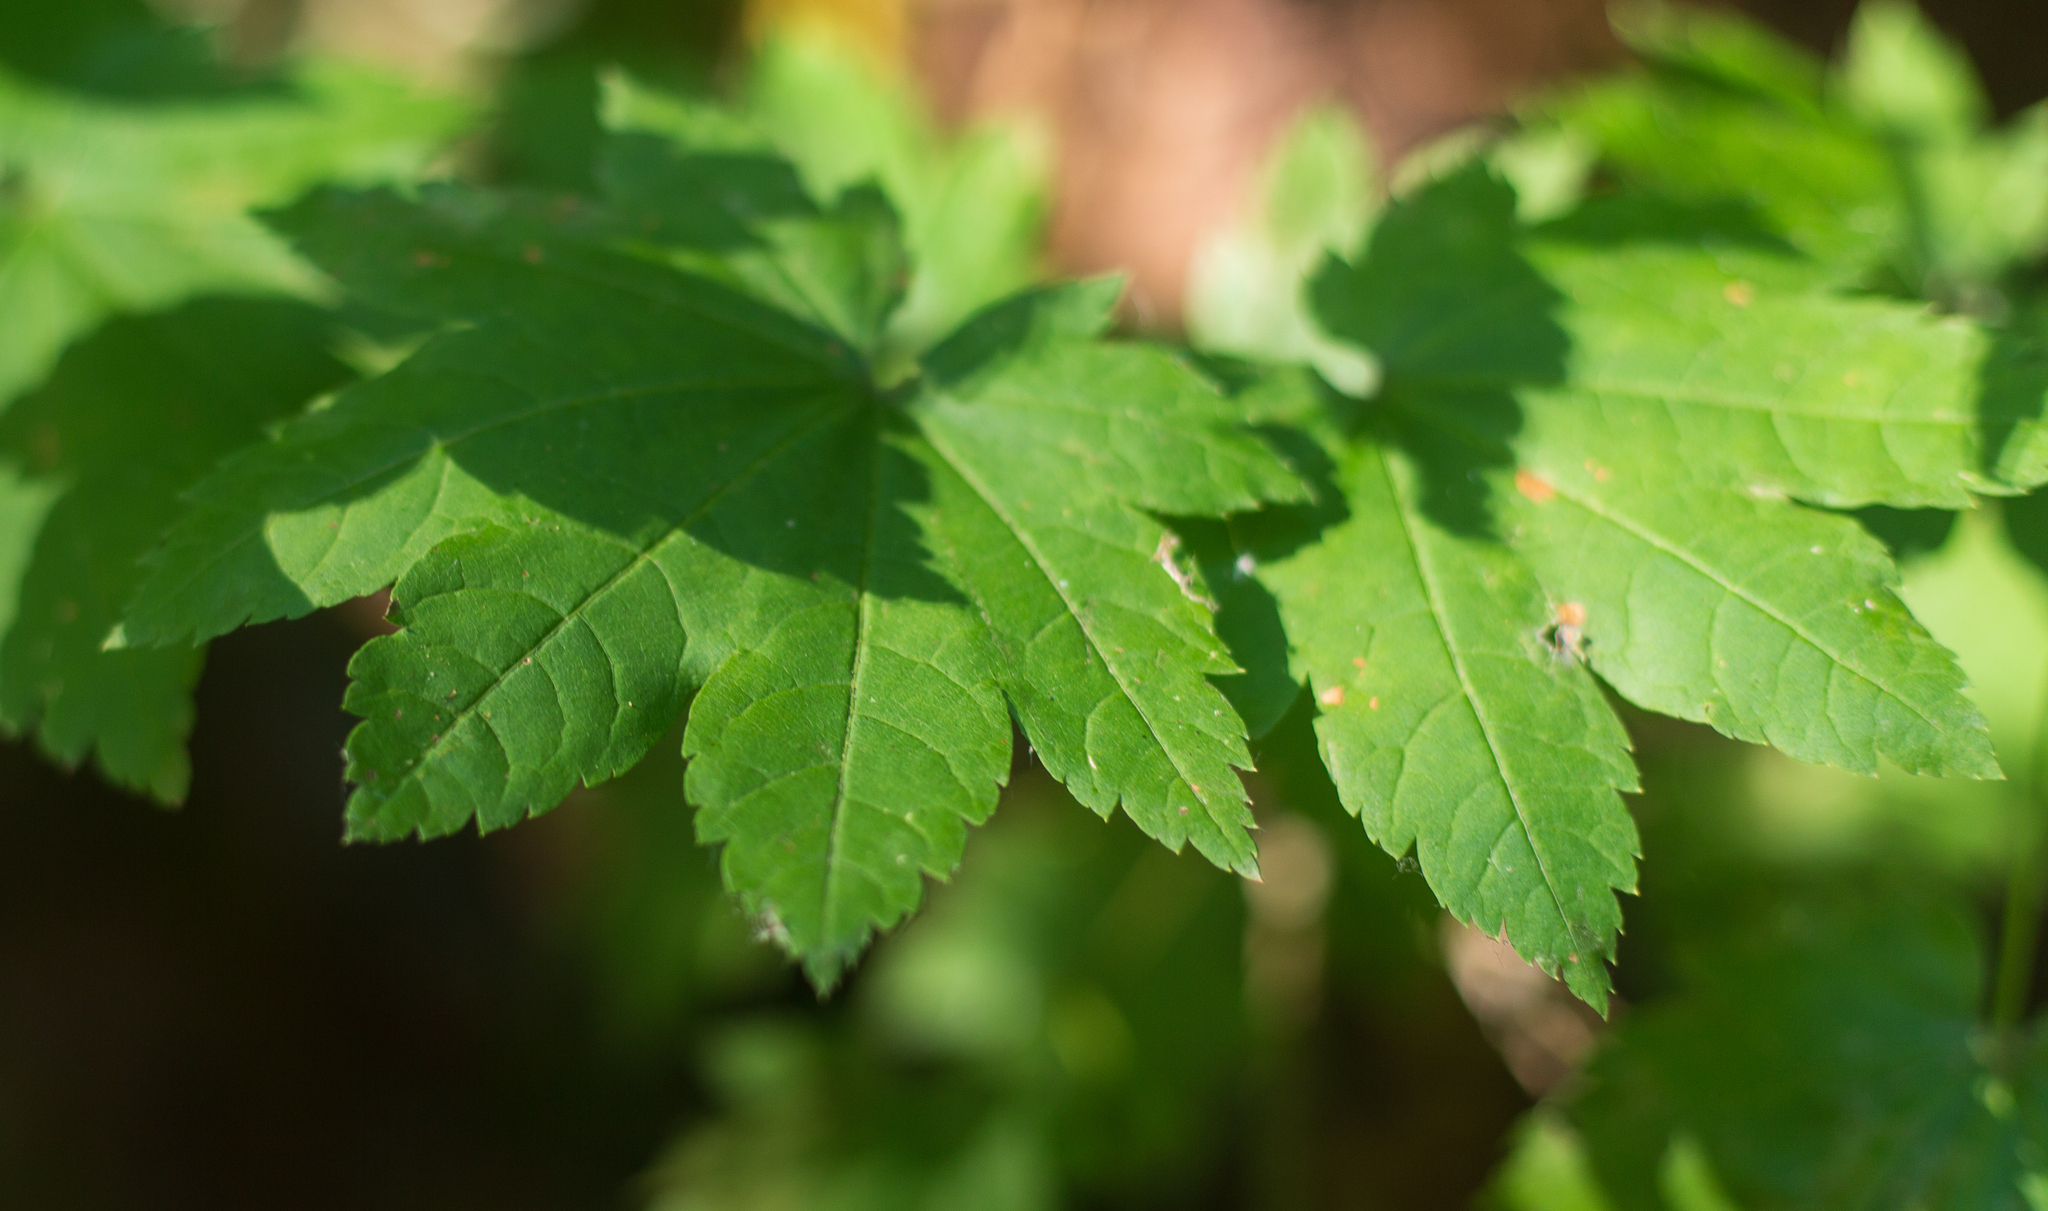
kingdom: Plantae
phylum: Tracheophyta
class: Magnoliopsida
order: Sapindales
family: Sapindaceae
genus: Acer
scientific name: Acer circinatum
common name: Vine maple
